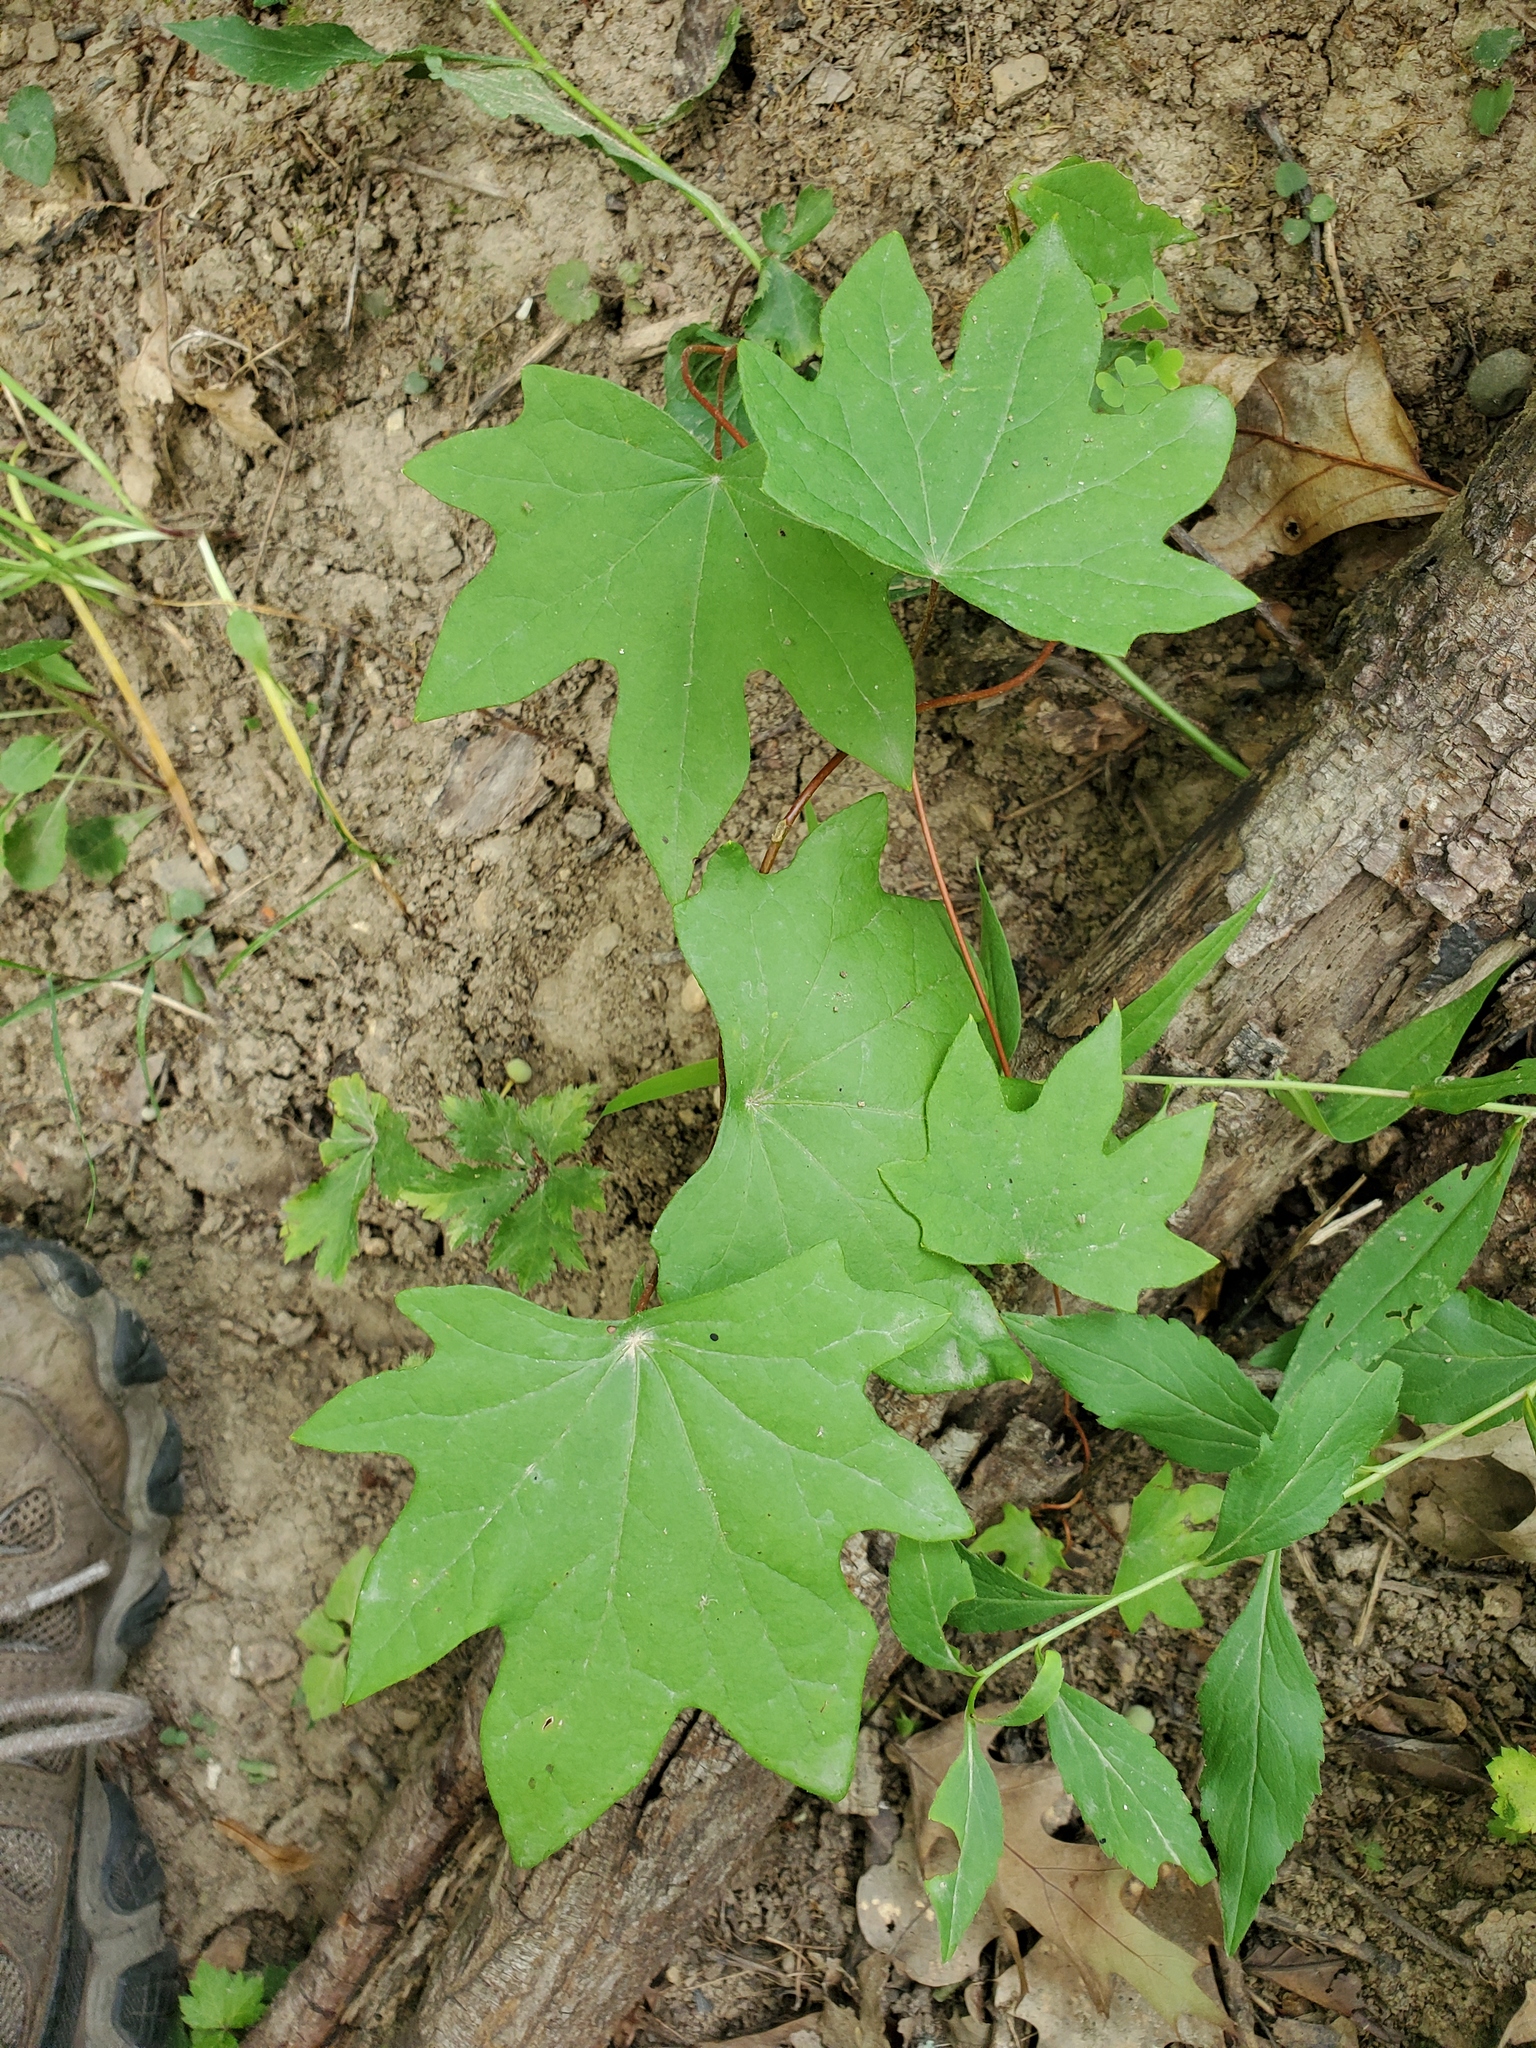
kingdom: Plantae
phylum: Tracheophyta
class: Magnoliopsida
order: Ranunculales
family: Menispermaceae
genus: Menispermum
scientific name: Menispermum canadense
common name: Moonseed
